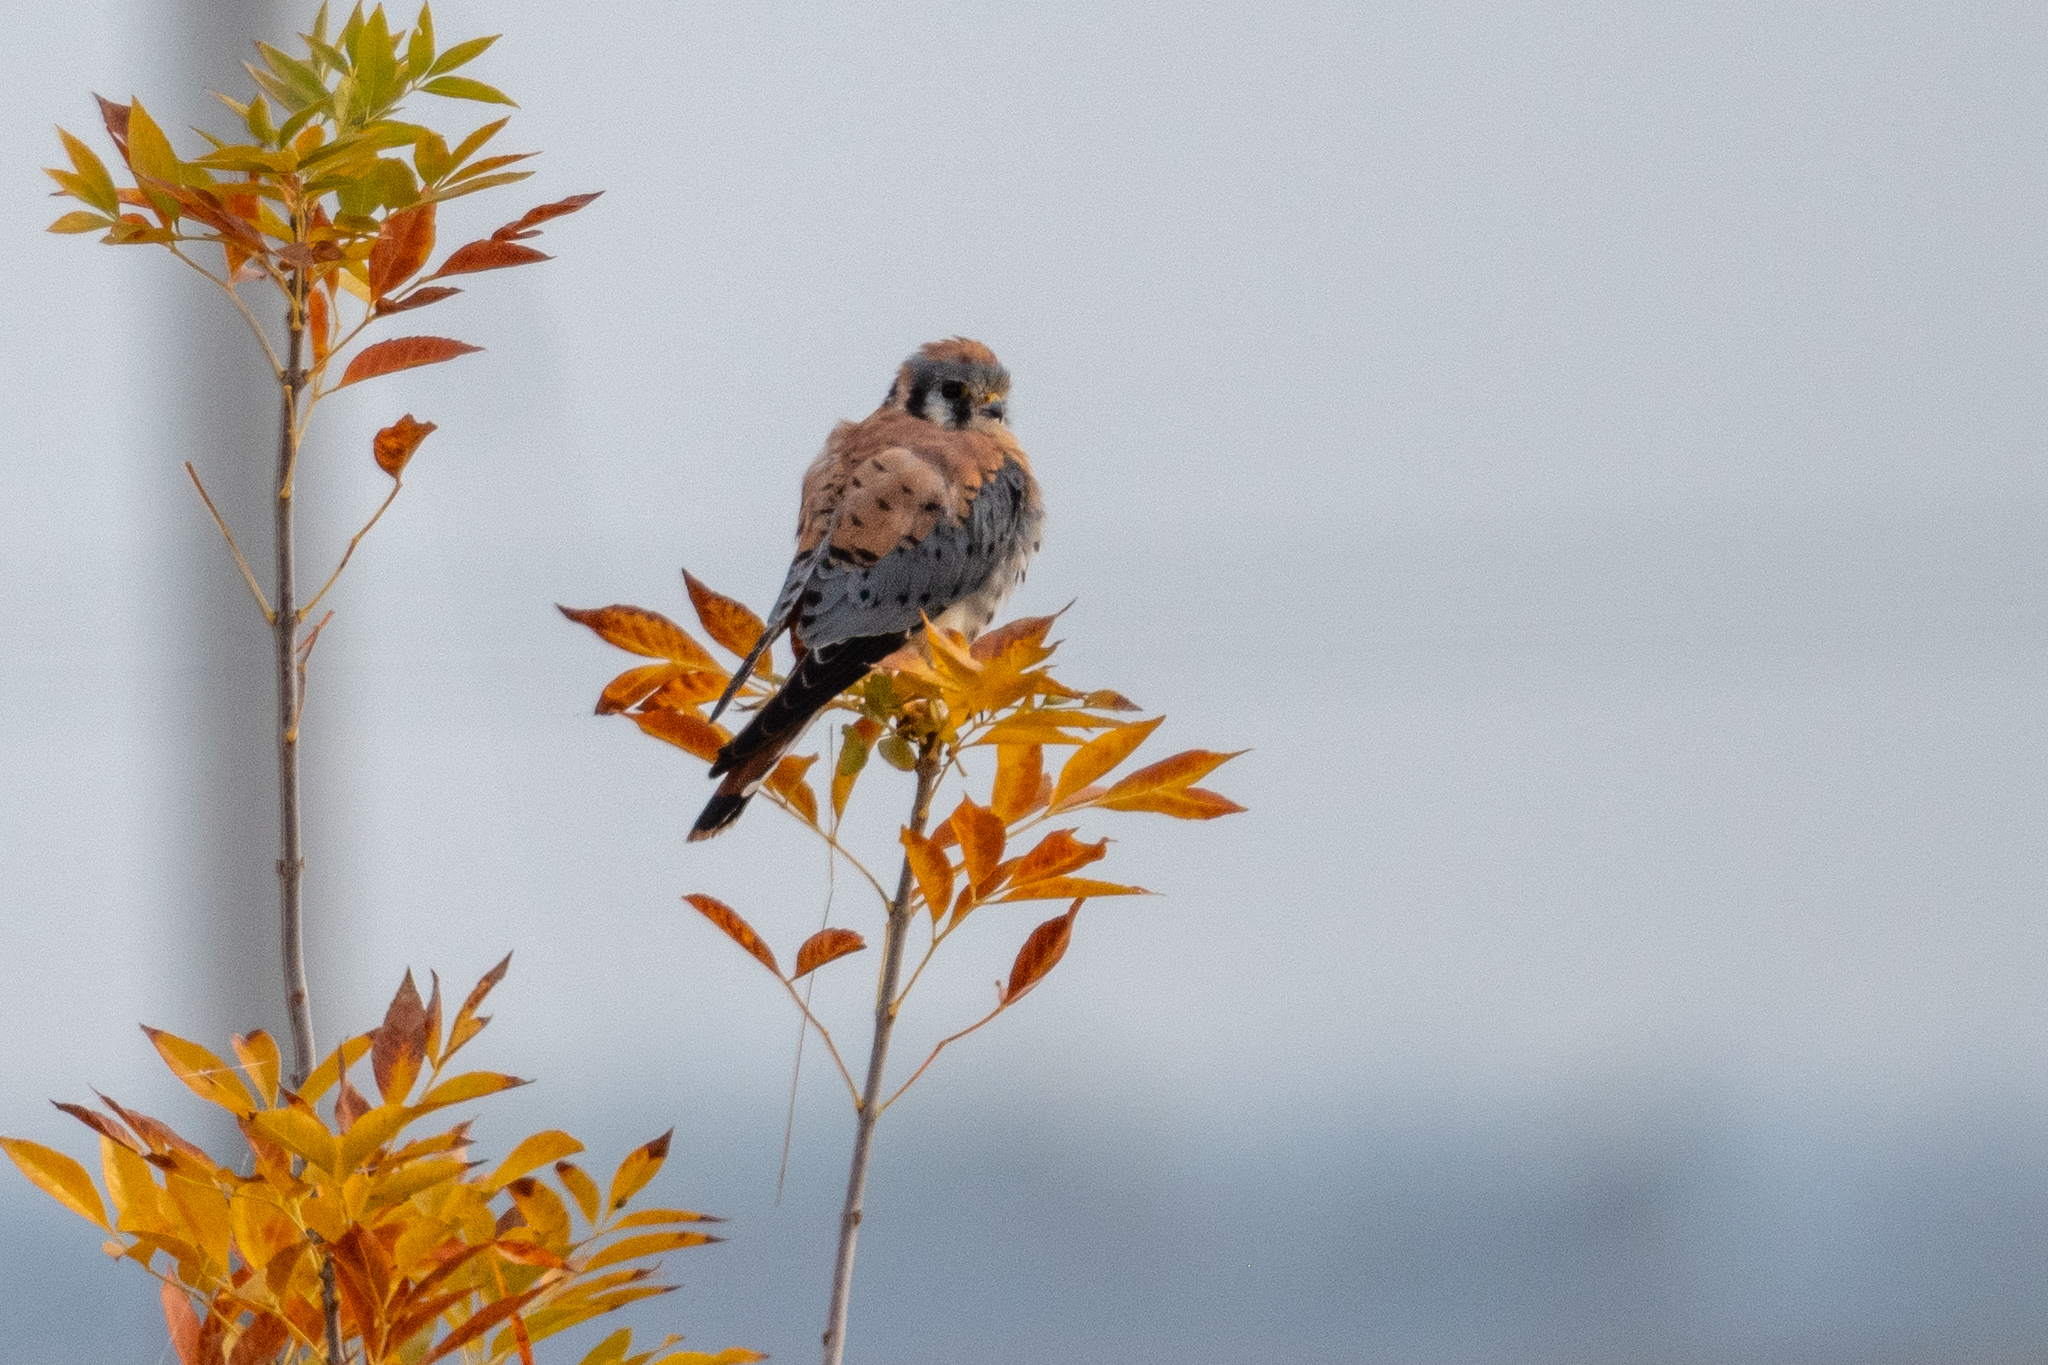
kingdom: Animalia
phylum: Chordata
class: Aves
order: Falconiformes
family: Falconidae
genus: Falco
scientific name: Falco sparverius
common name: American kestrel
